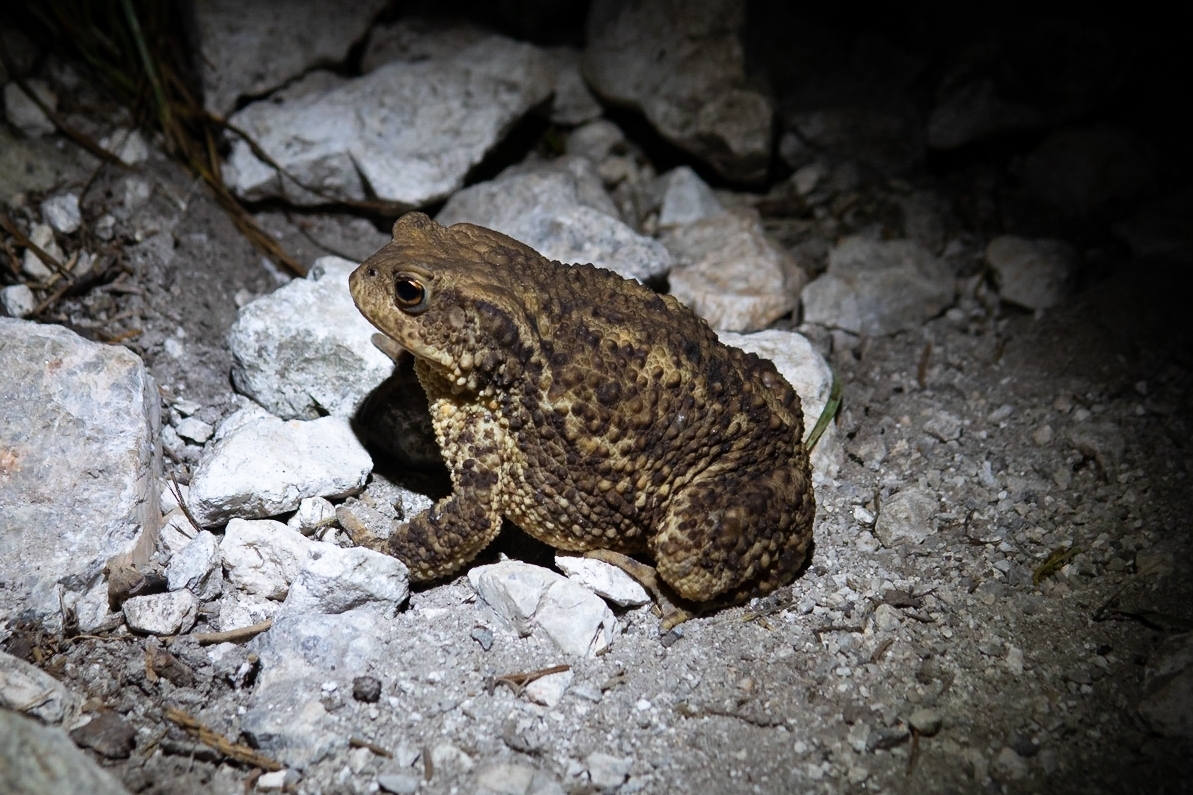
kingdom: Animalia
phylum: Chordata
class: Amphibia
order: Anura
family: Bufonidae
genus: Bufo
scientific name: Bufo bufo
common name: Common toad
